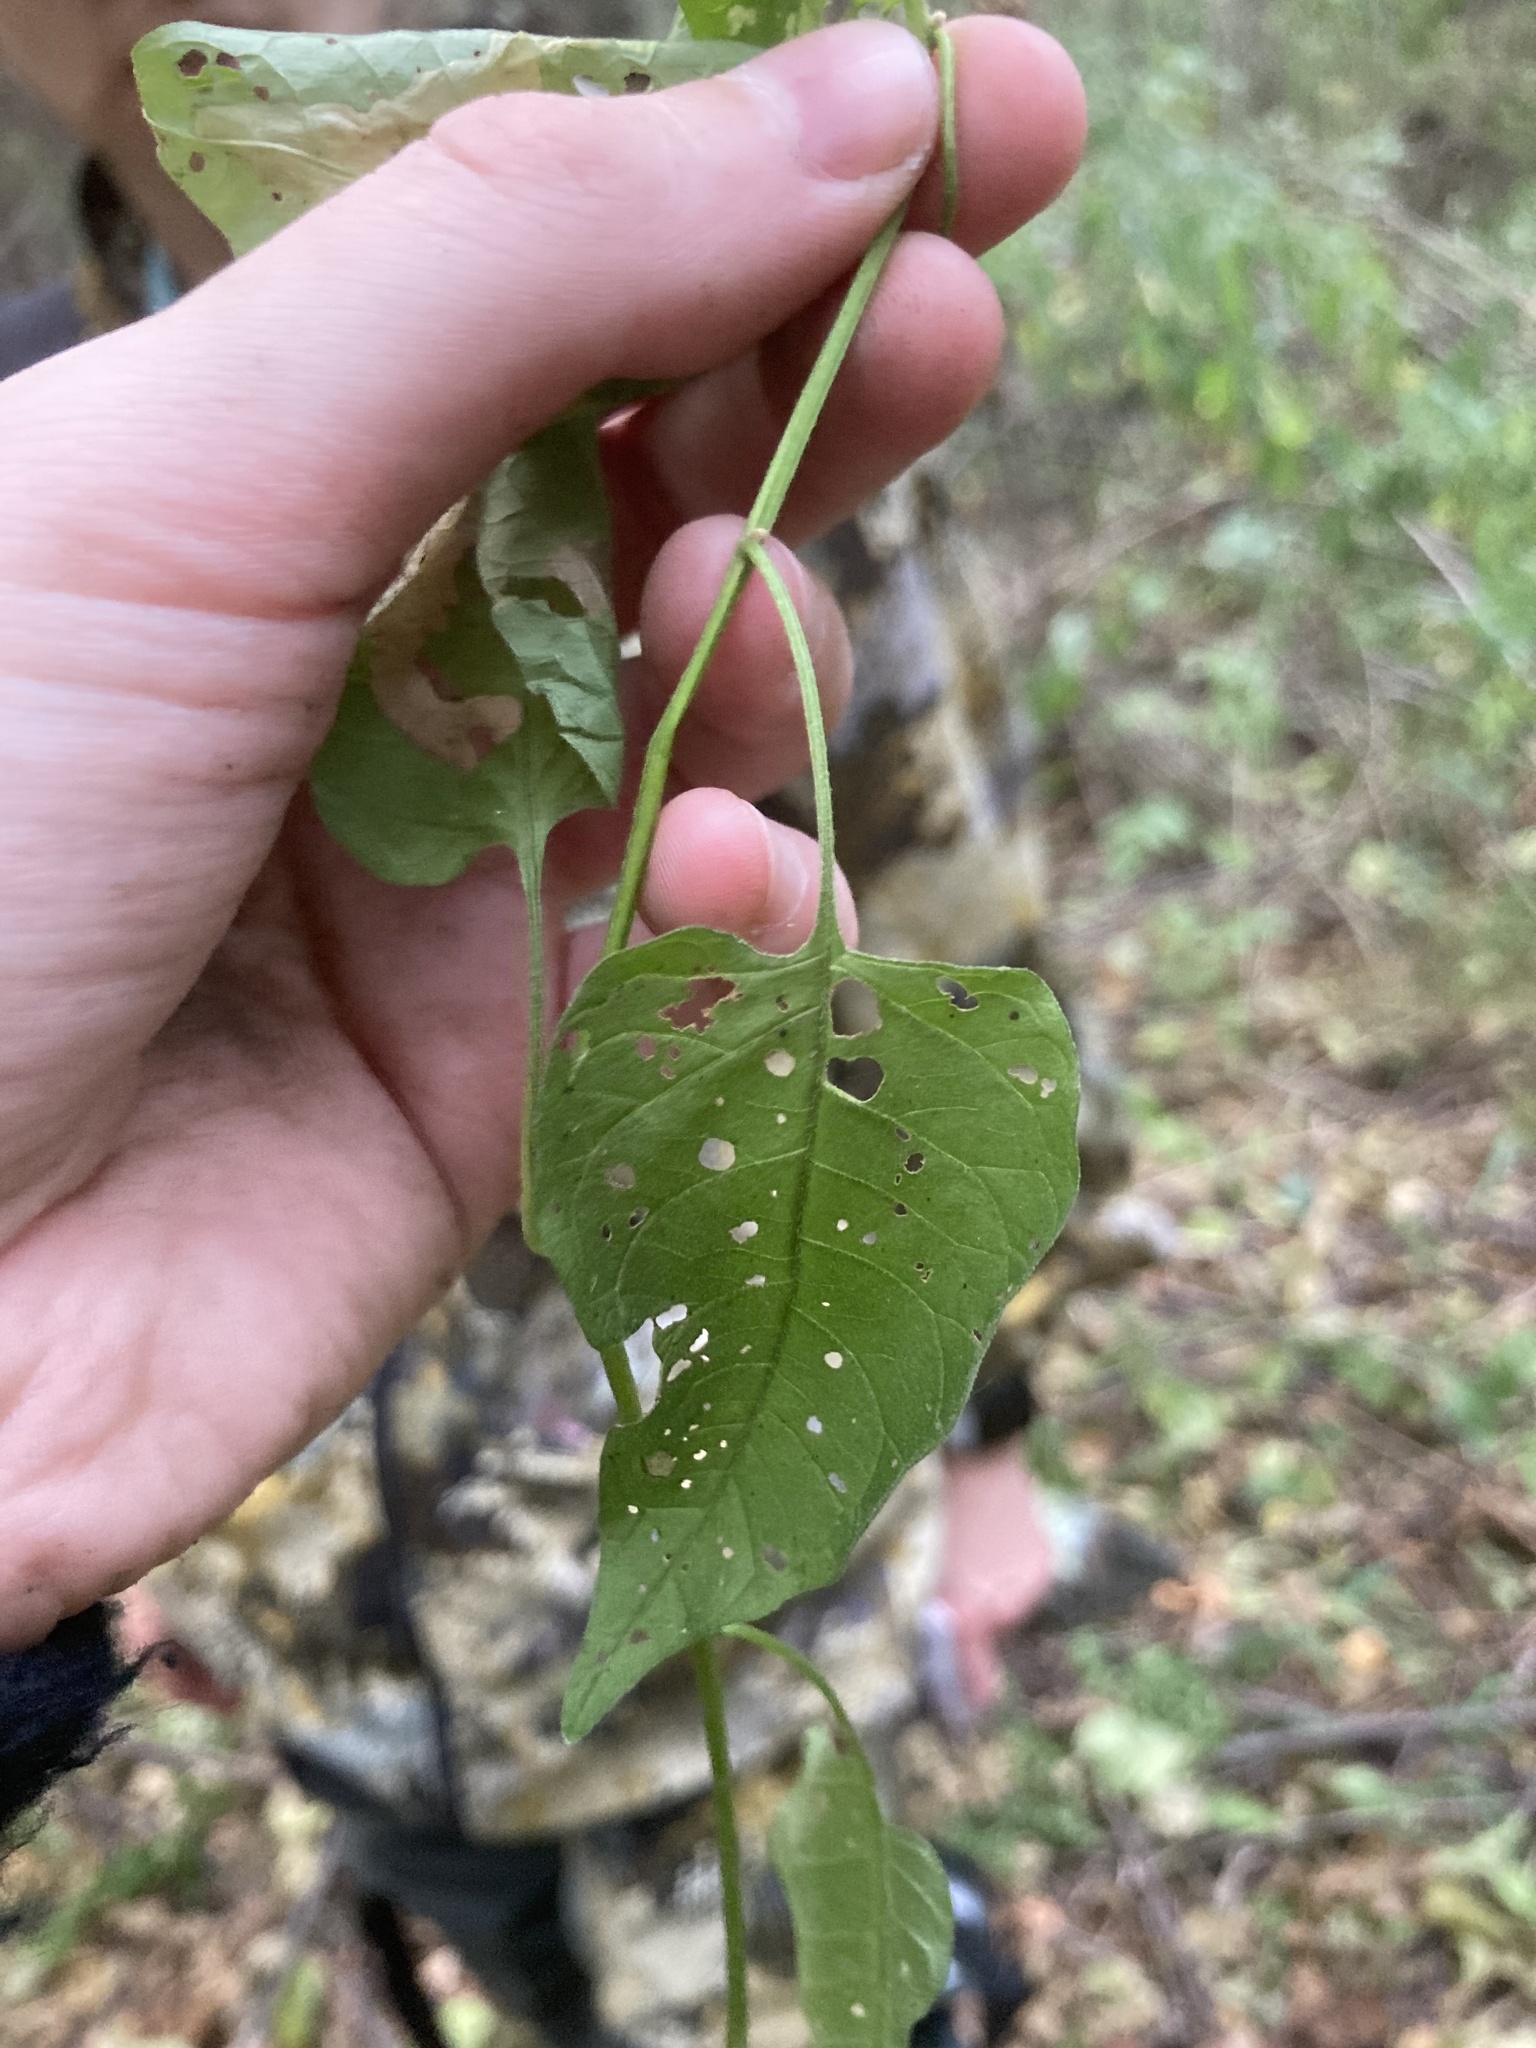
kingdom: Plantae
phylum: Tracheophyta
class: Magnoliopsida
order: Solanales
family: Solanaceae
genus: Solanum
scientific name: Solanum dulcamara
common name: Climbing nightshade
